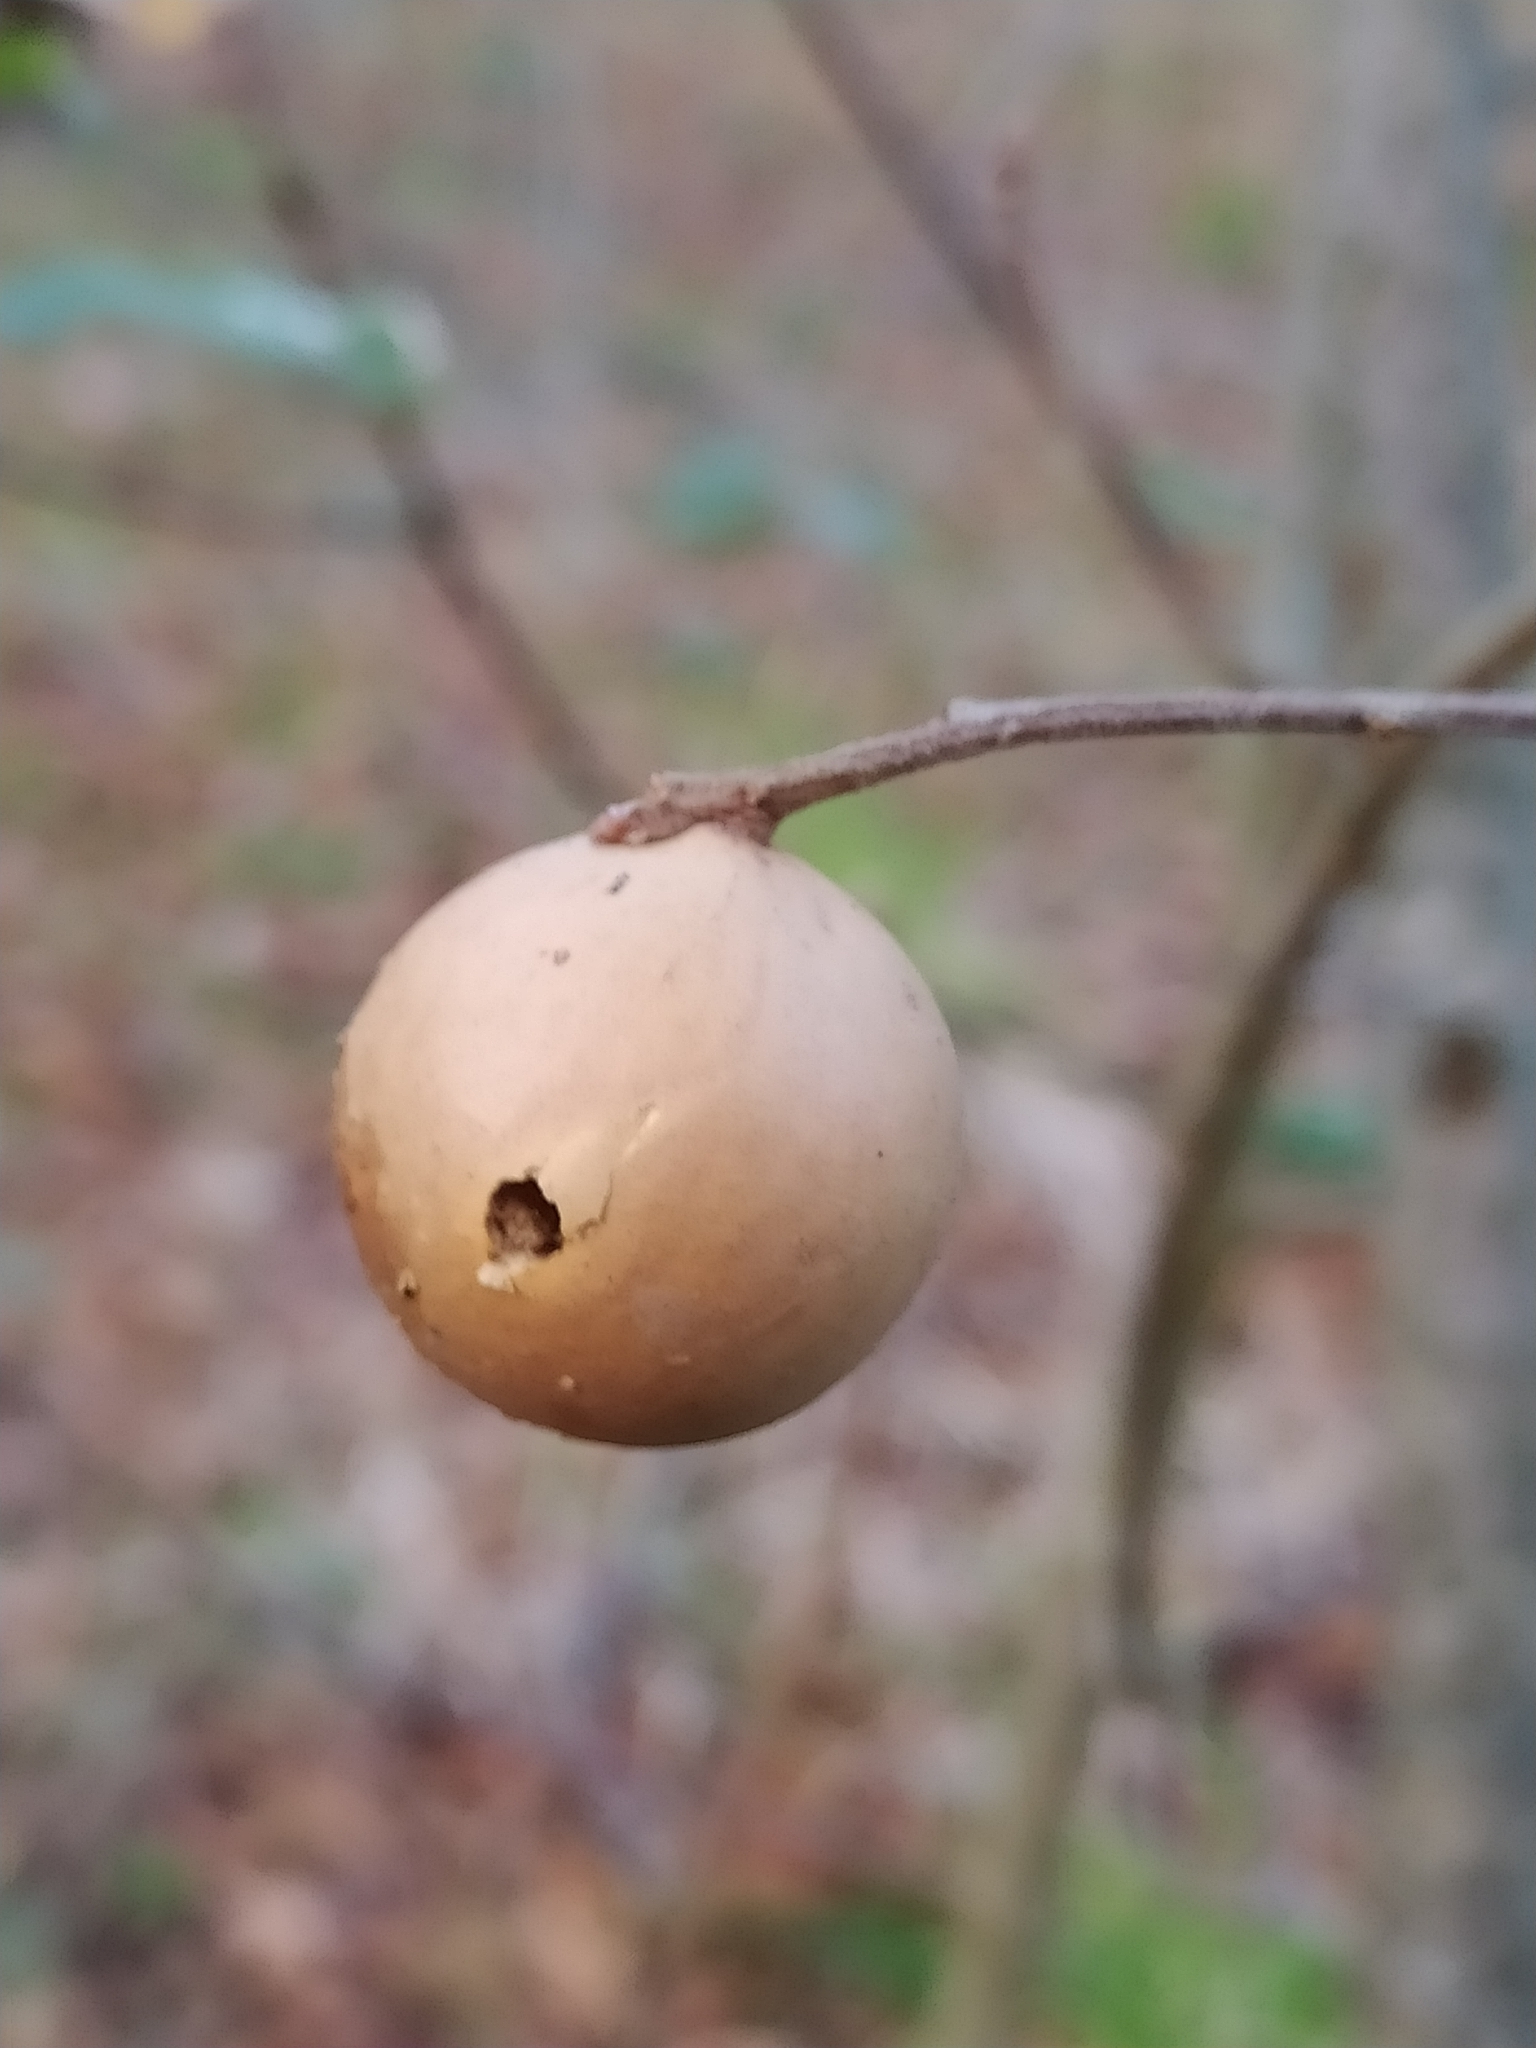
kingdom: Animalia
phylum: Arthropoda
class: Insecta
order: Hymenoptera
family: Cynipidae
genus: Andricus
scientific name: Andricus kollari
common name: Marble gall
